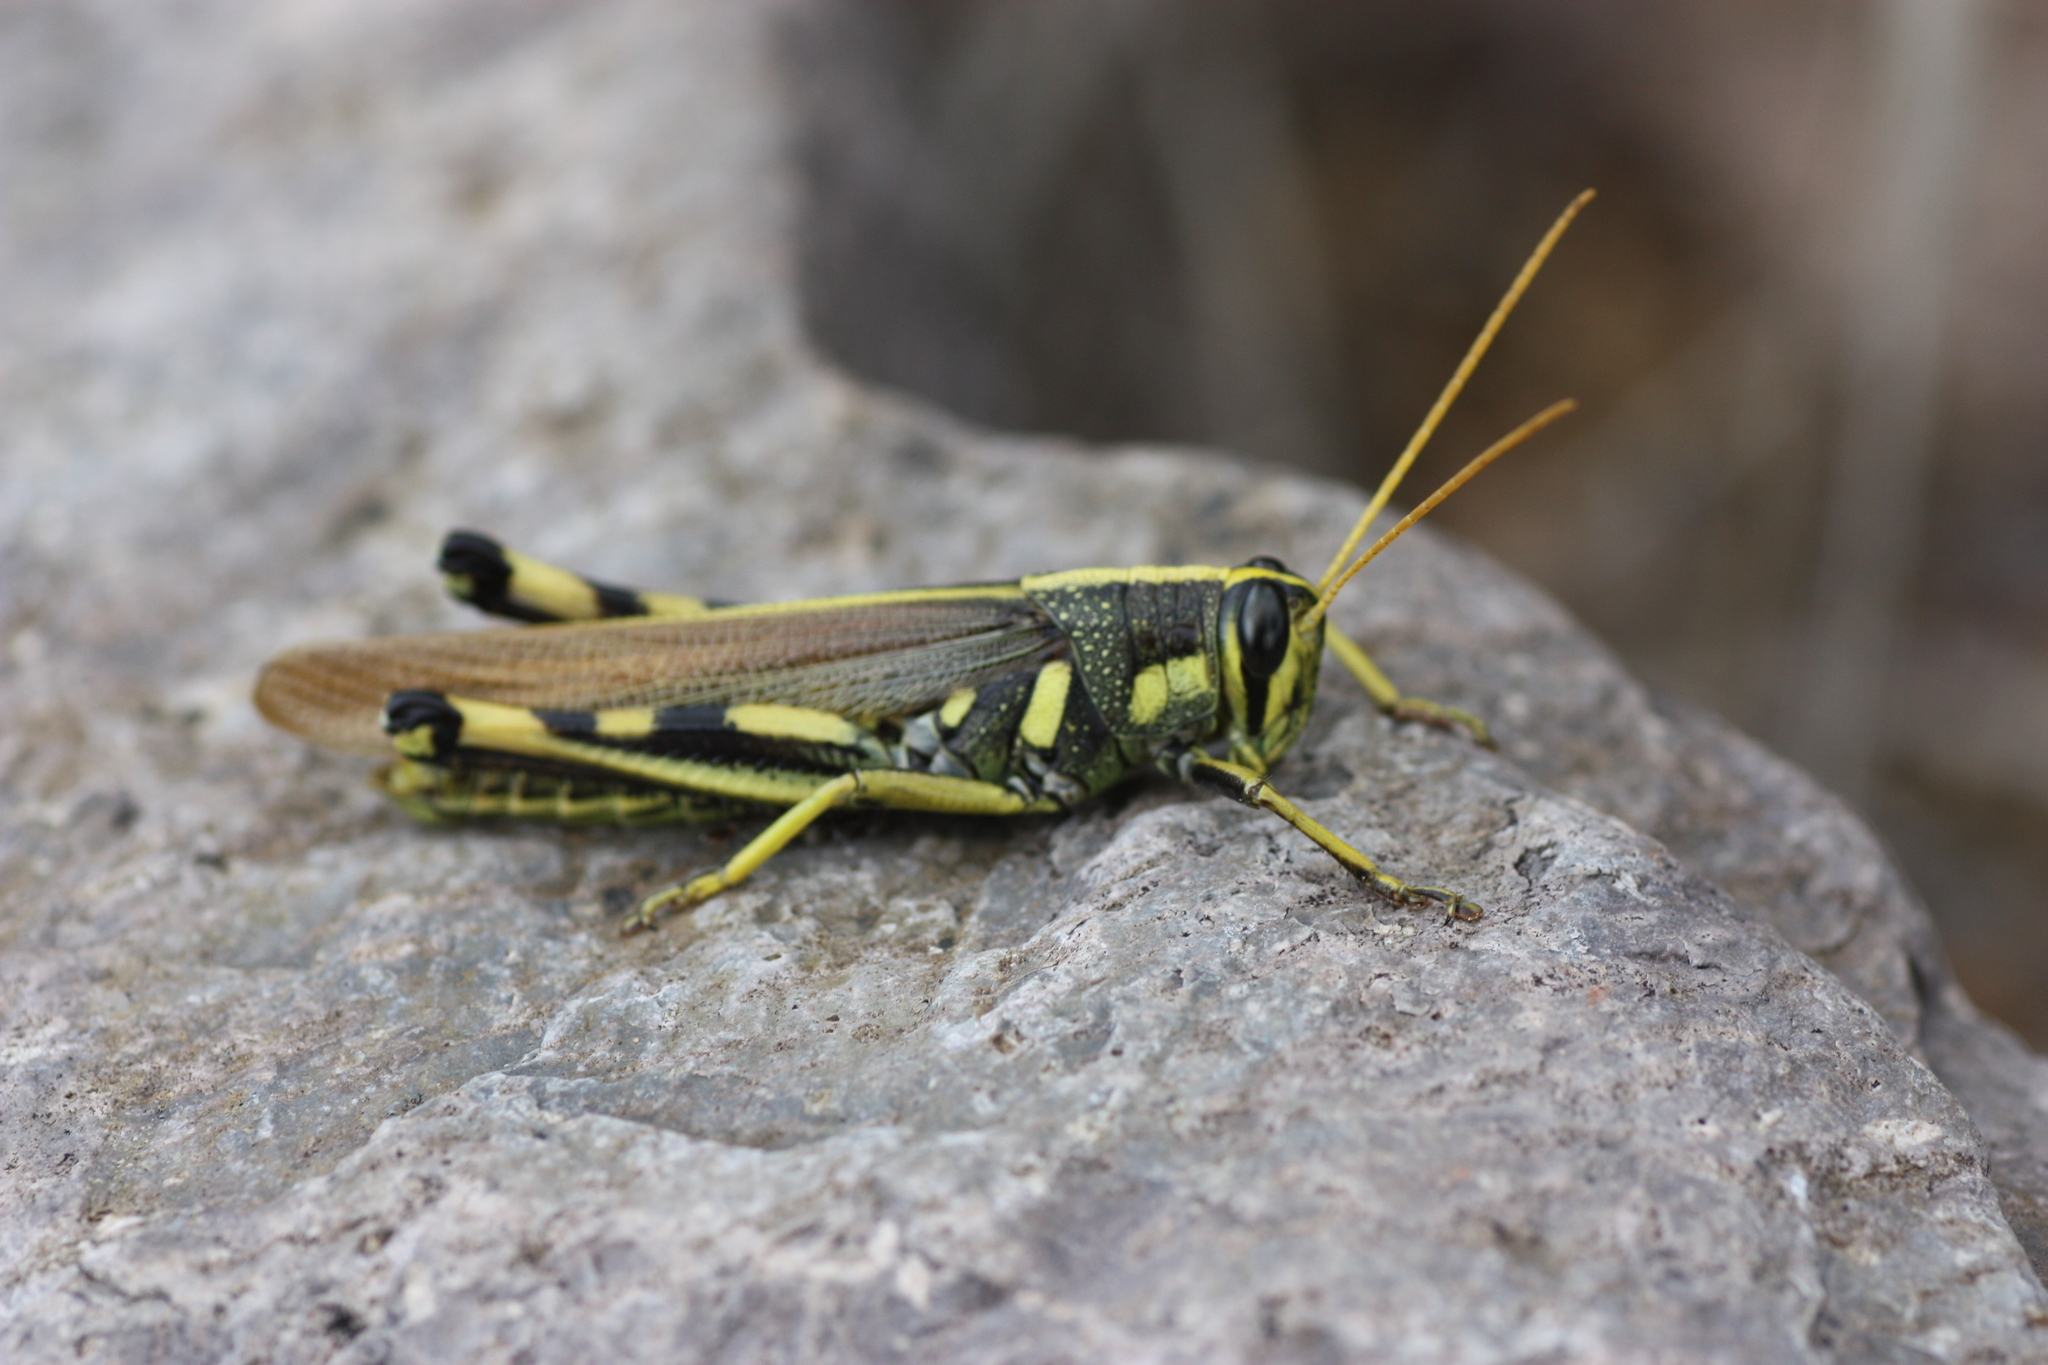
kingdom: Animalia
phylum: Arthropoda
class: Insecta
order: Orthoptera
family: Acrididae
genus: Schistocerca
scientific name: Schistocerca albolineata
